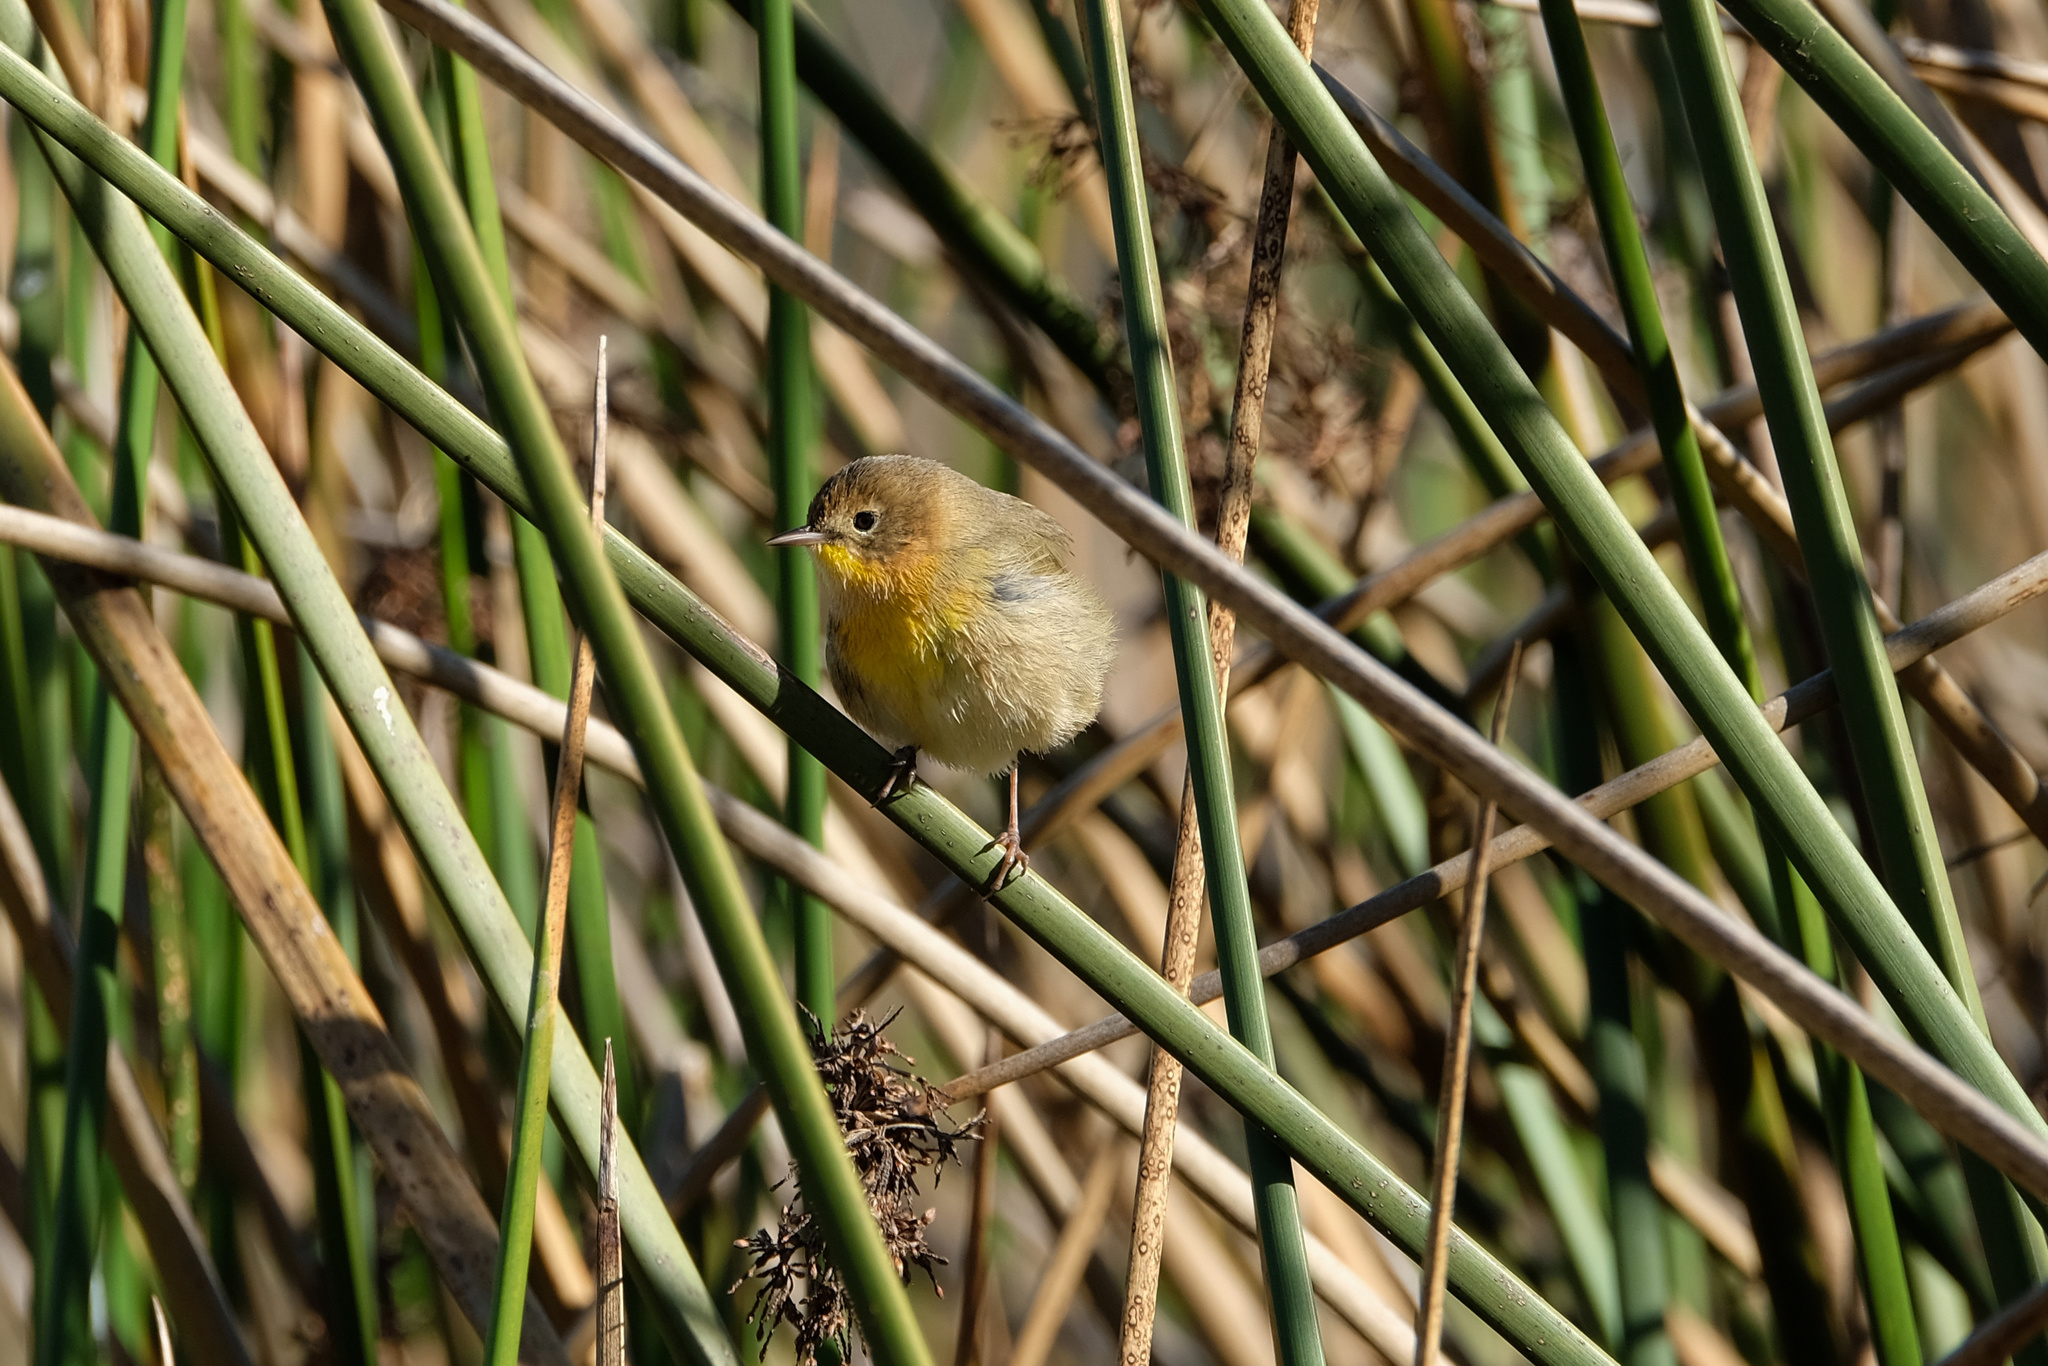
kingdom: Animalia
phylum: Chordata
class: Aves
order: Passeriformes
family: Parulidae
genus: Geothlypis
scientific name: Geothlypis trichas
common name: Common yellowthroat
